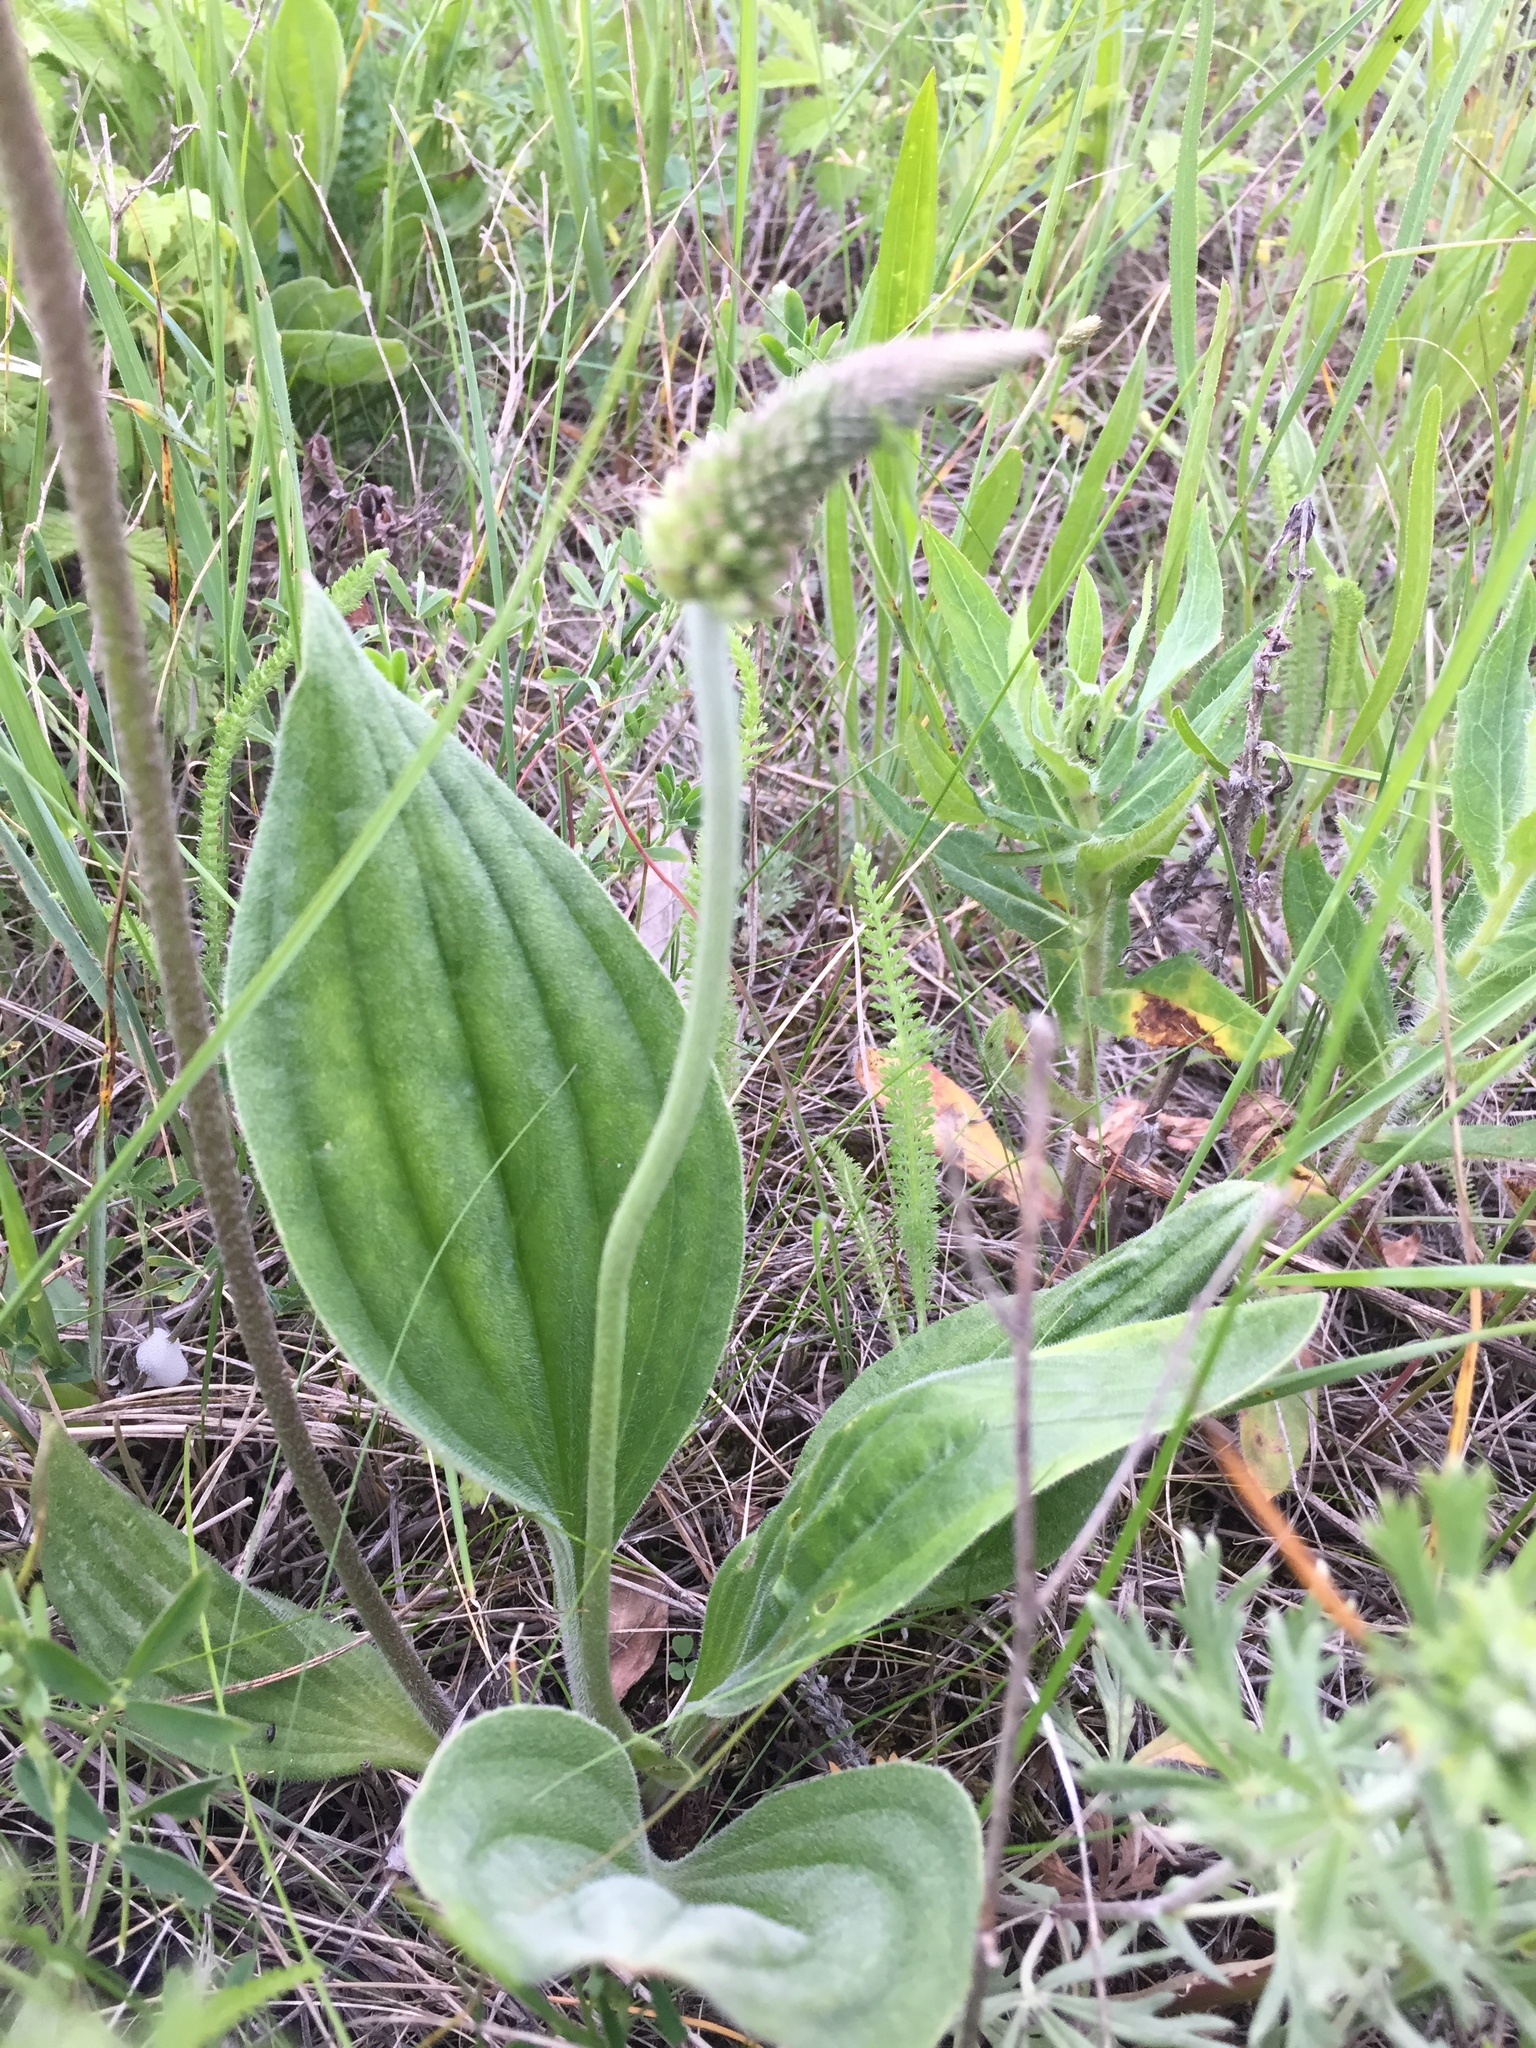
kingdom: Plantae
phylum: Tracheophyta
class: Magnoliopsida
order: Lamiales
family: Plantaginaceae
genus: Plantago
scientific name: Plantago urvillei
